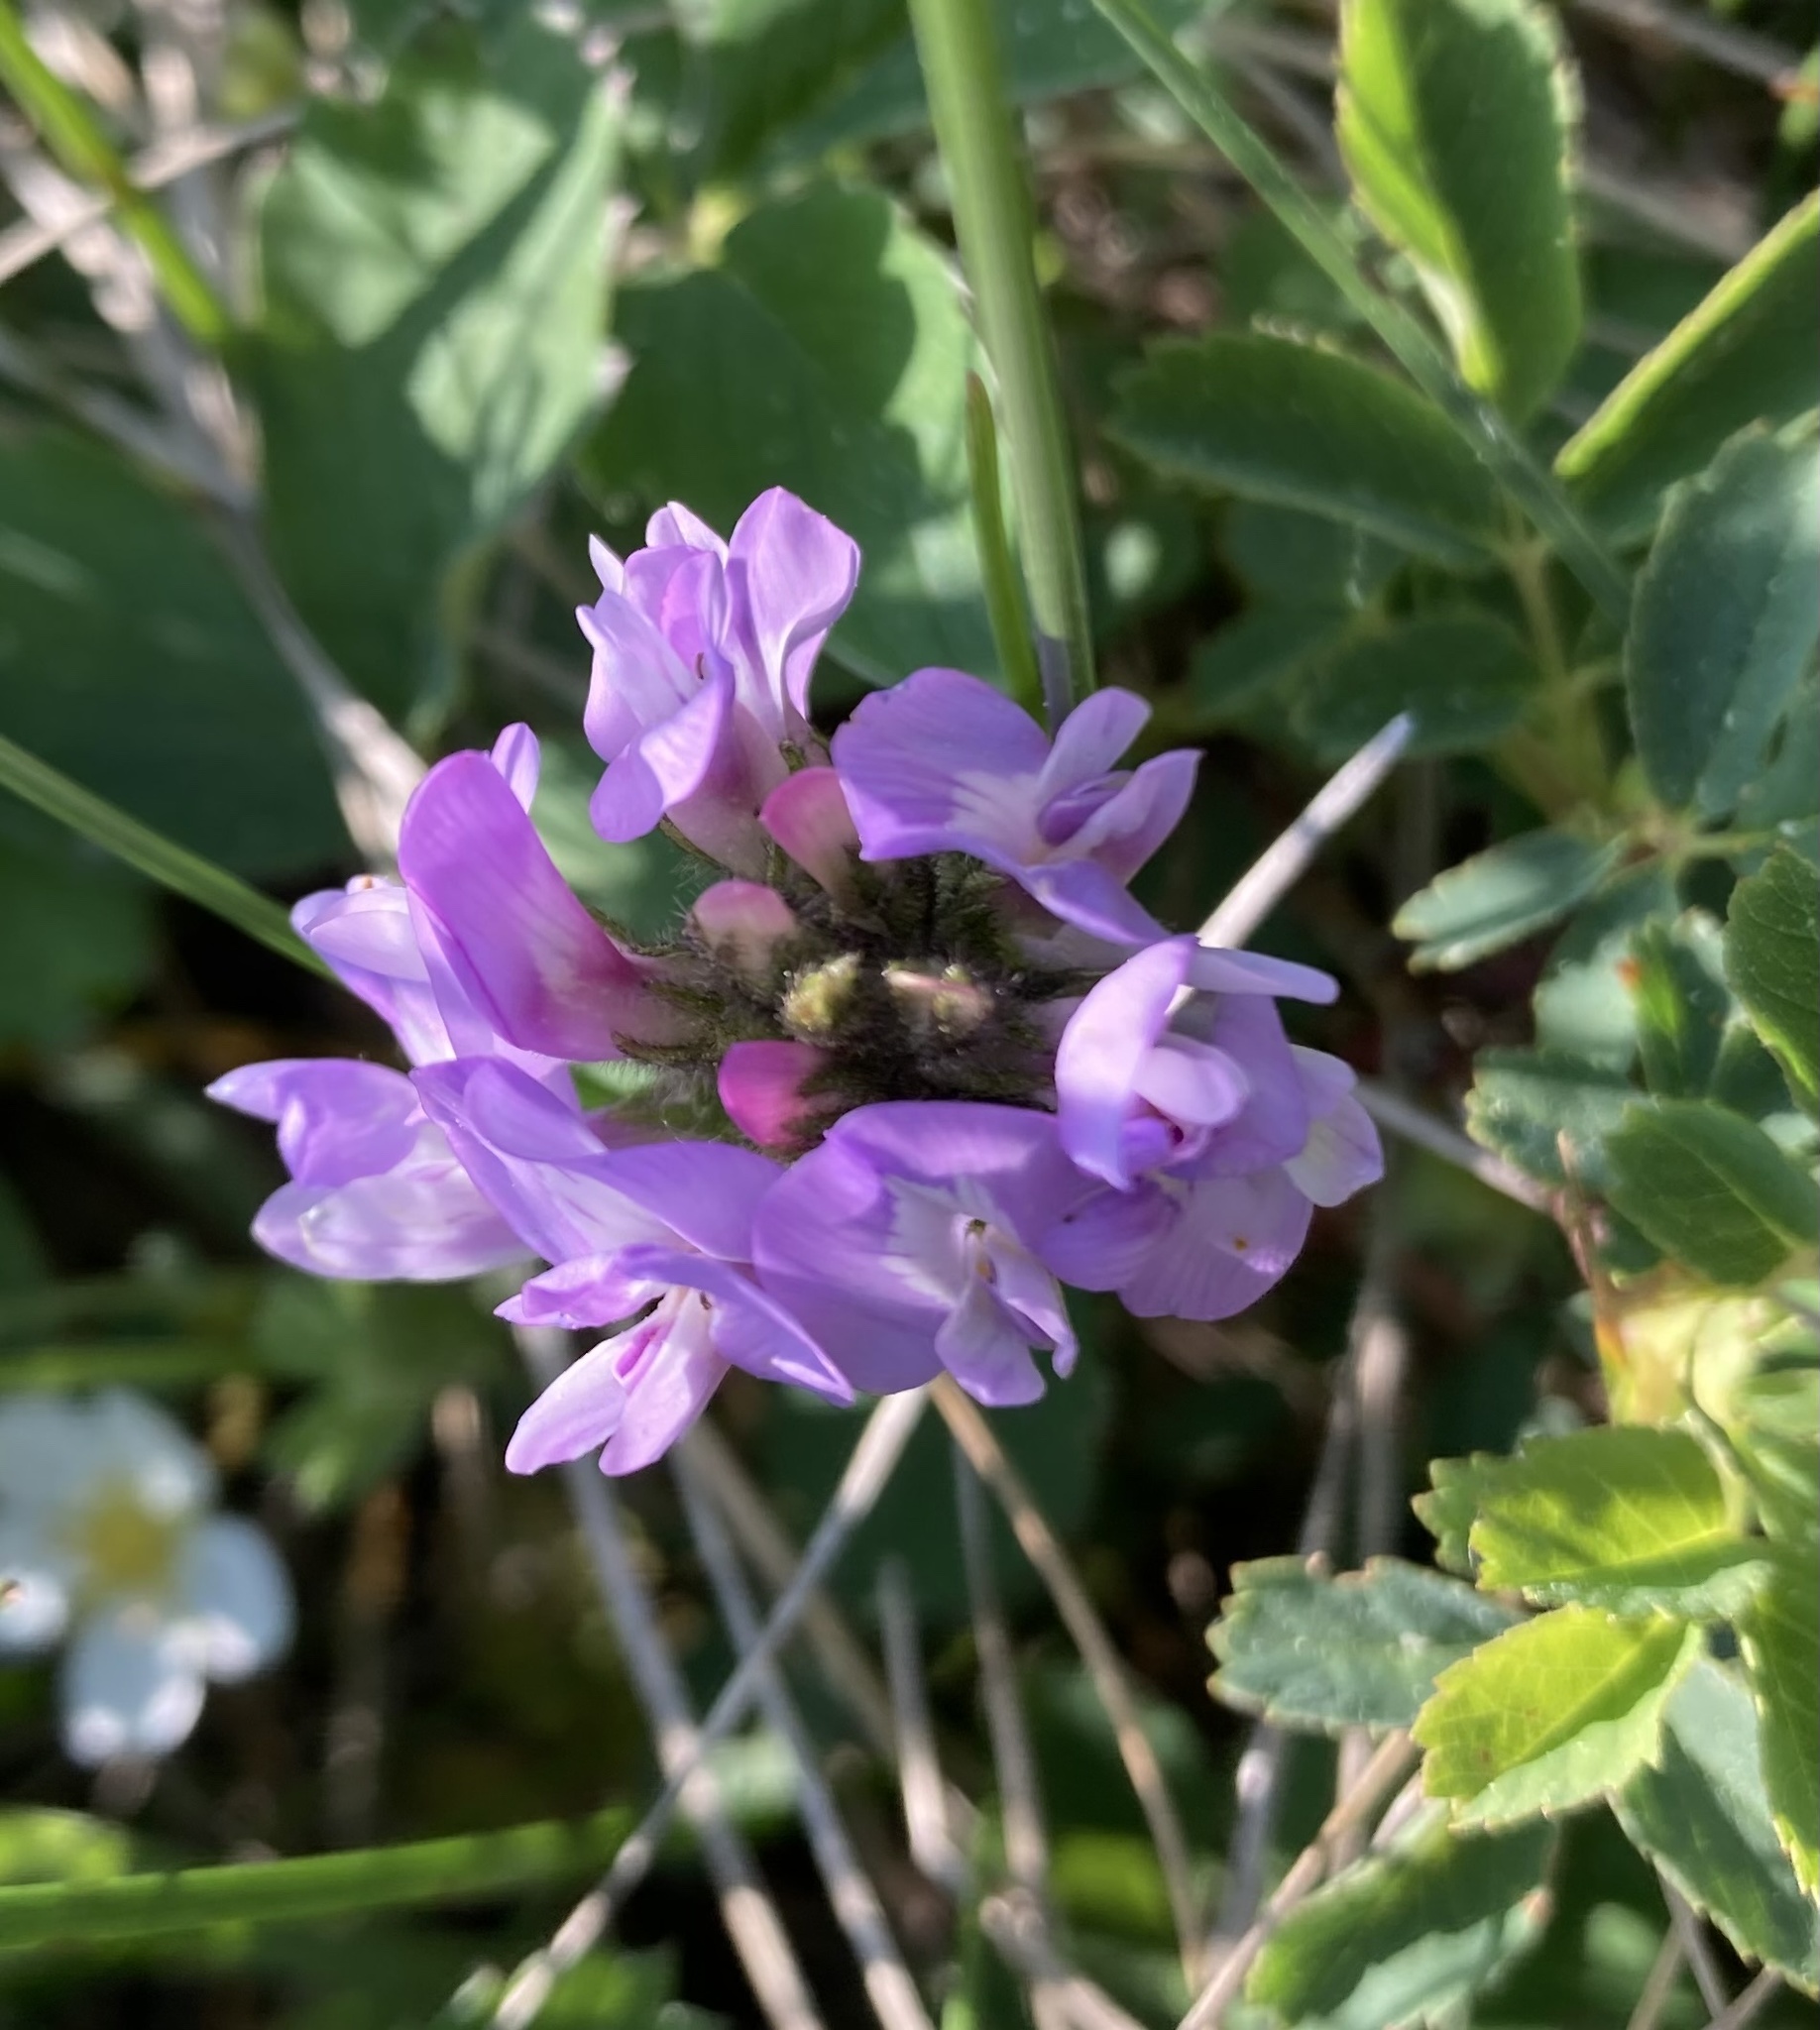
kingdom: Plantae
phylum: Tracheophyta
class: Magnoliopsida
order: Fabales
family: Fabaceae
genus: Astragalus
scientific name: Astragalus agrestis
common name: Field milk-vetch
